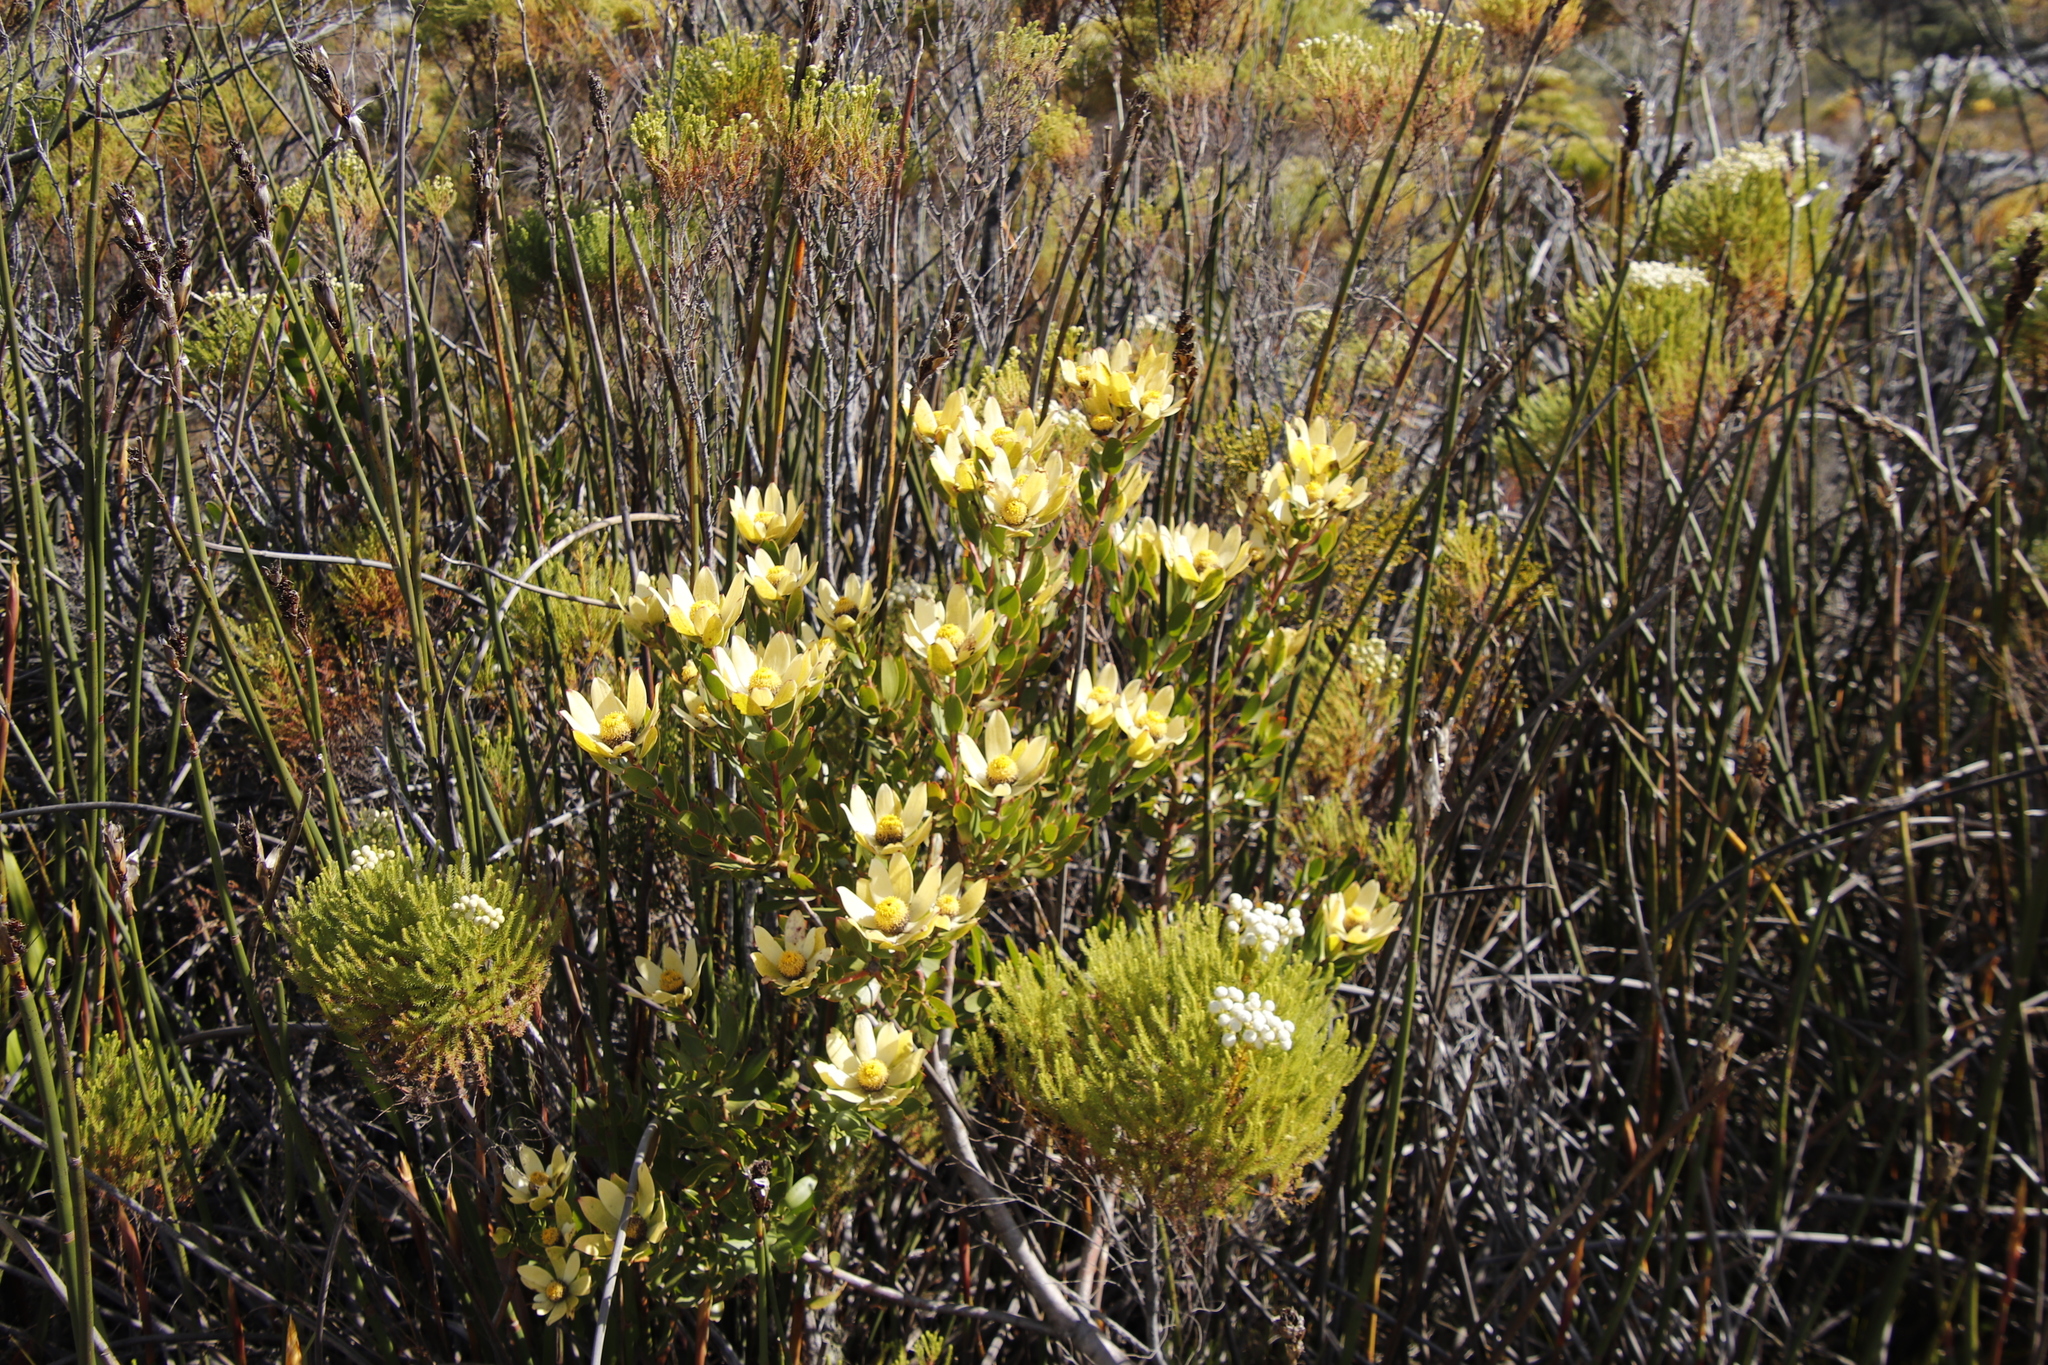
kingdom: Plantae
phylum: Tracheophyta
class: Magnoliopsida
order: Proteales
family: Proteaceae
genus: Leucadendron
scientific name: Leucadendron strobilinum
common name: Mountain rose
